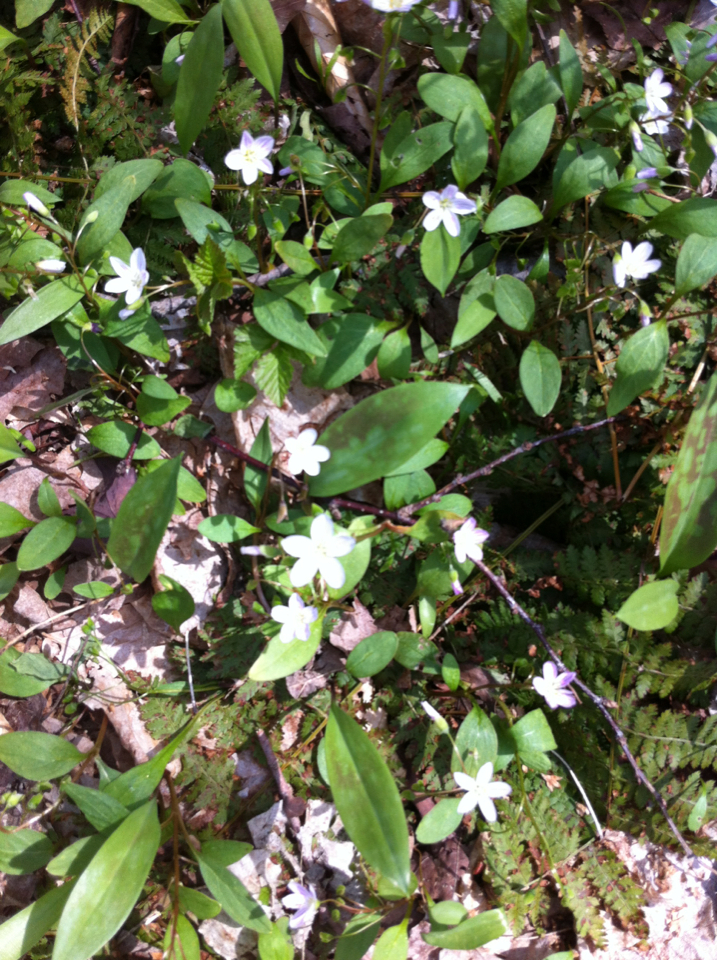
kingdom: Plantae
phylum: Tracheophyta
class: Magnoliopsida
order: Caryophyllales
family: Montiaceae
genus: Claytonia
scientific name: Claytonia caroliniana
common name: Carolina spring beauty
